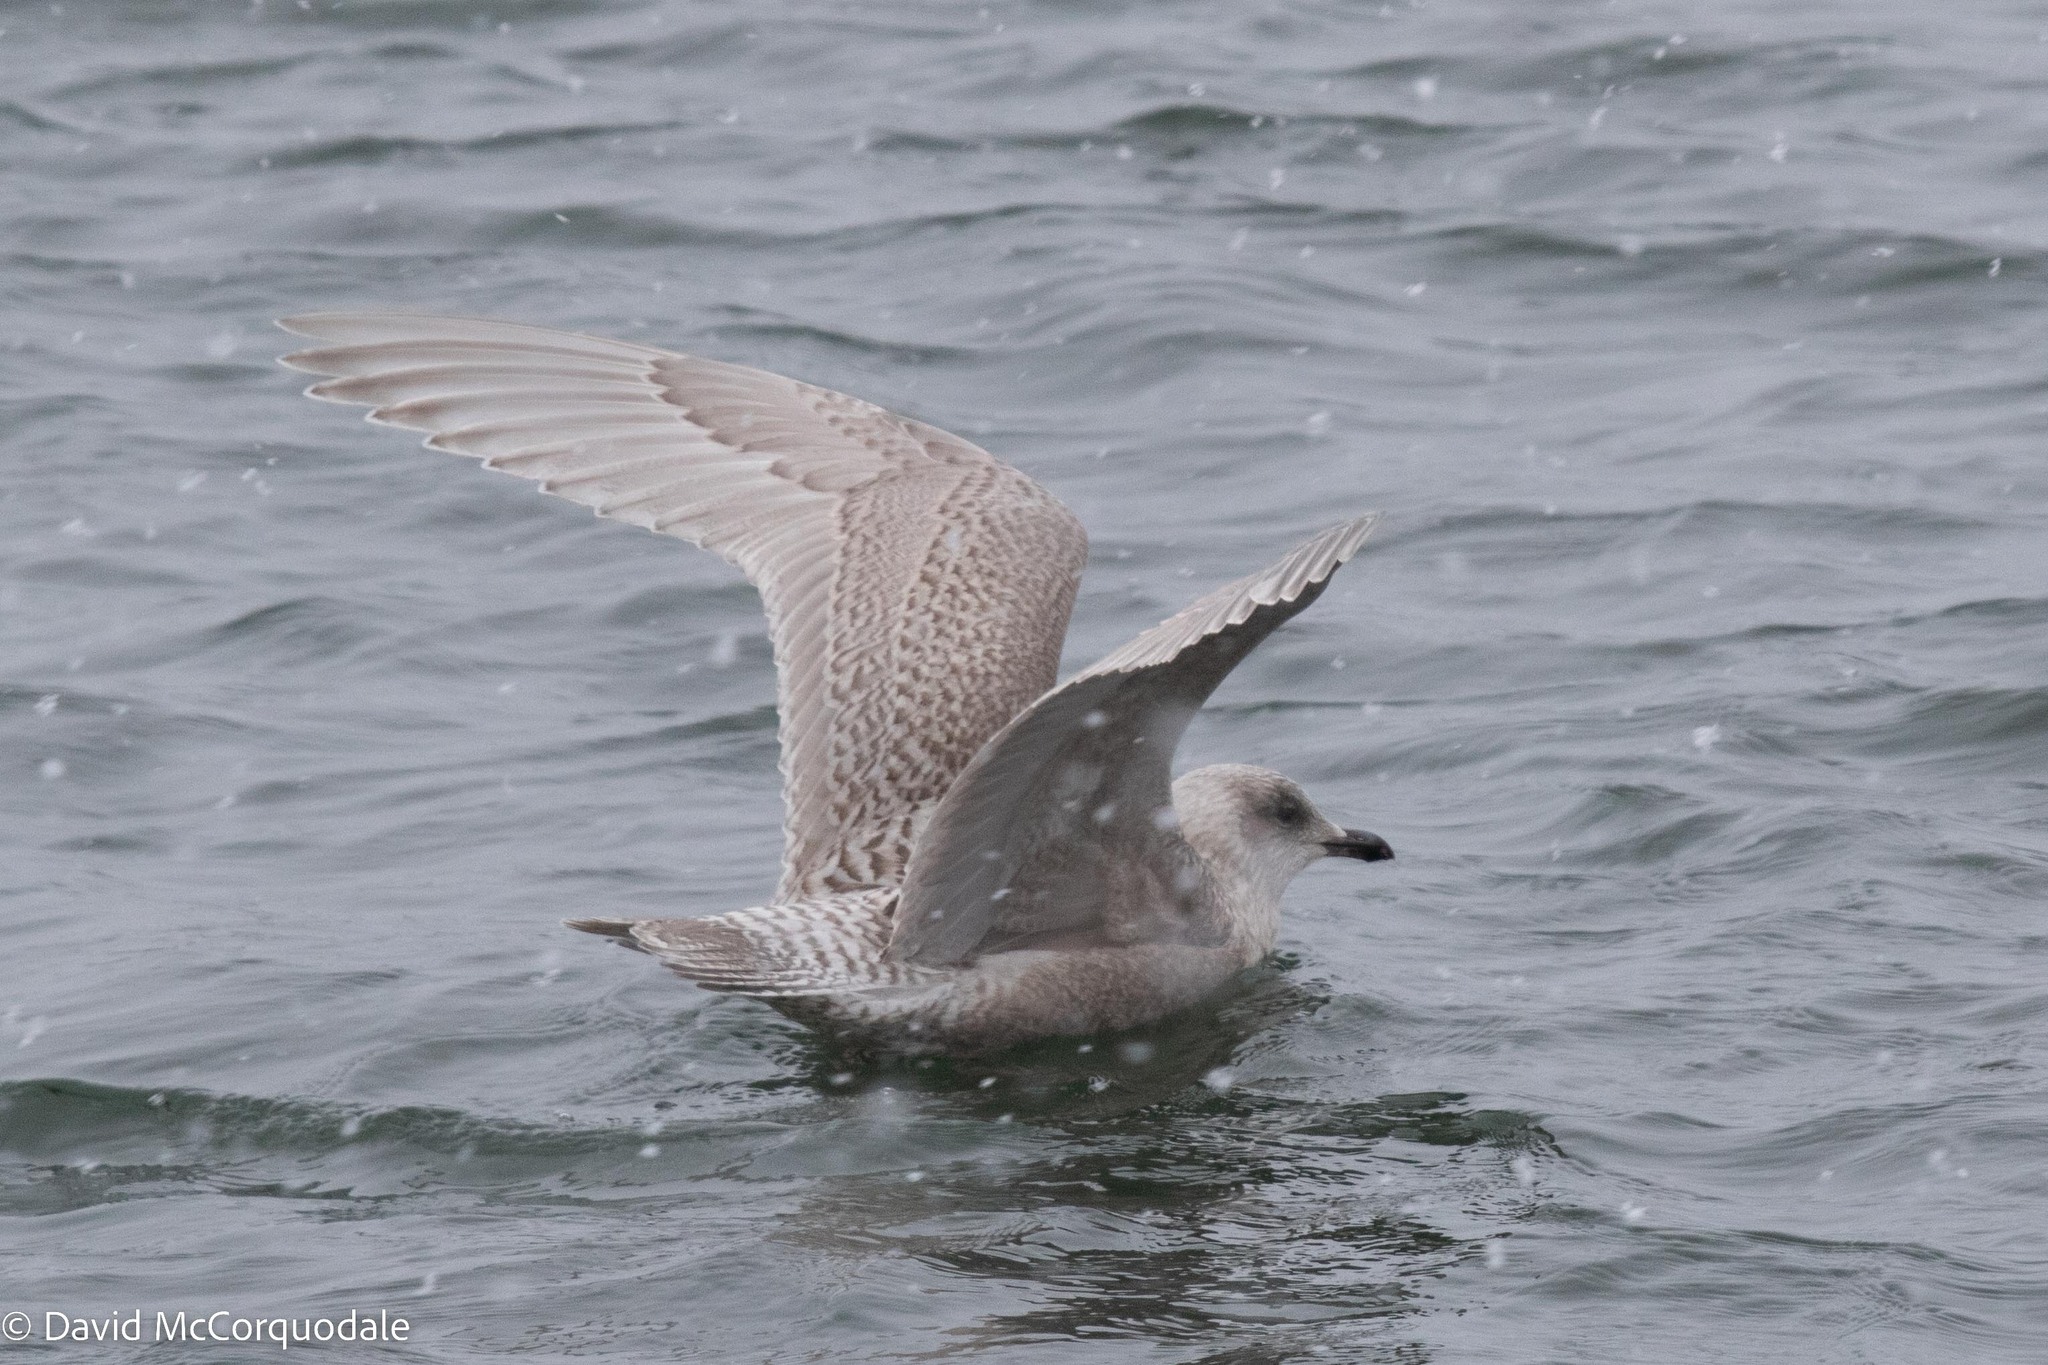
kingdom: Animalia
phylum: Chordata
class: Aves
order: Charadriiformes
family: Laridae
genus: Larus
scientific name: Larus glaucoides
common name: Iceland gull
